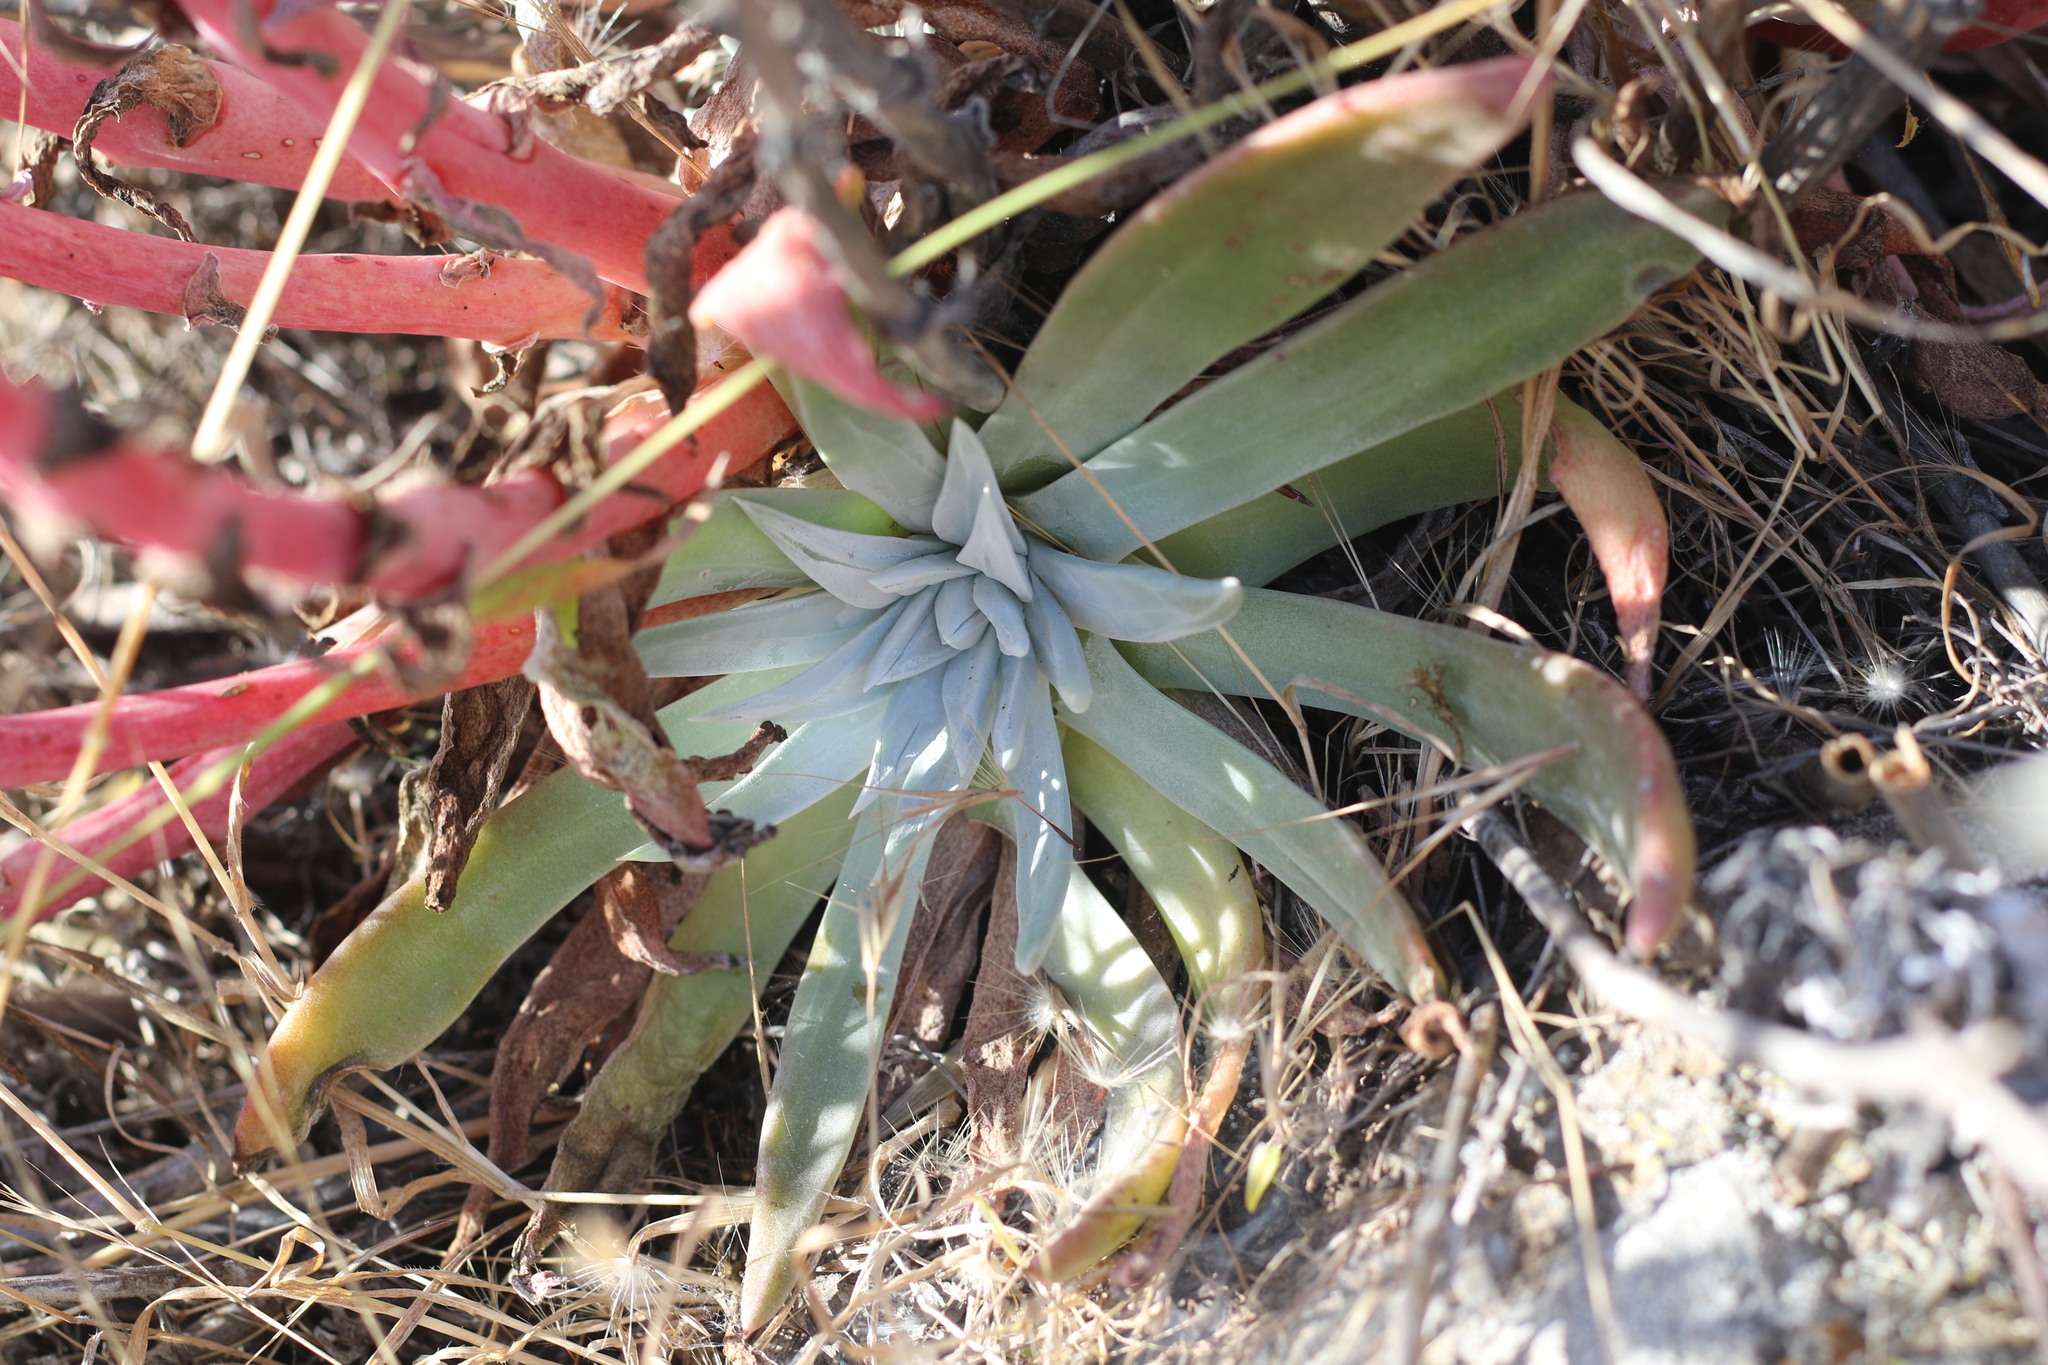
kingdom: Plantae
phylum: Tracheophyta
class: Magnoliopsida
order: Saxifragales
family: Crassulaceae
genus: Dudleya
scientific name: Dudleya greenei
